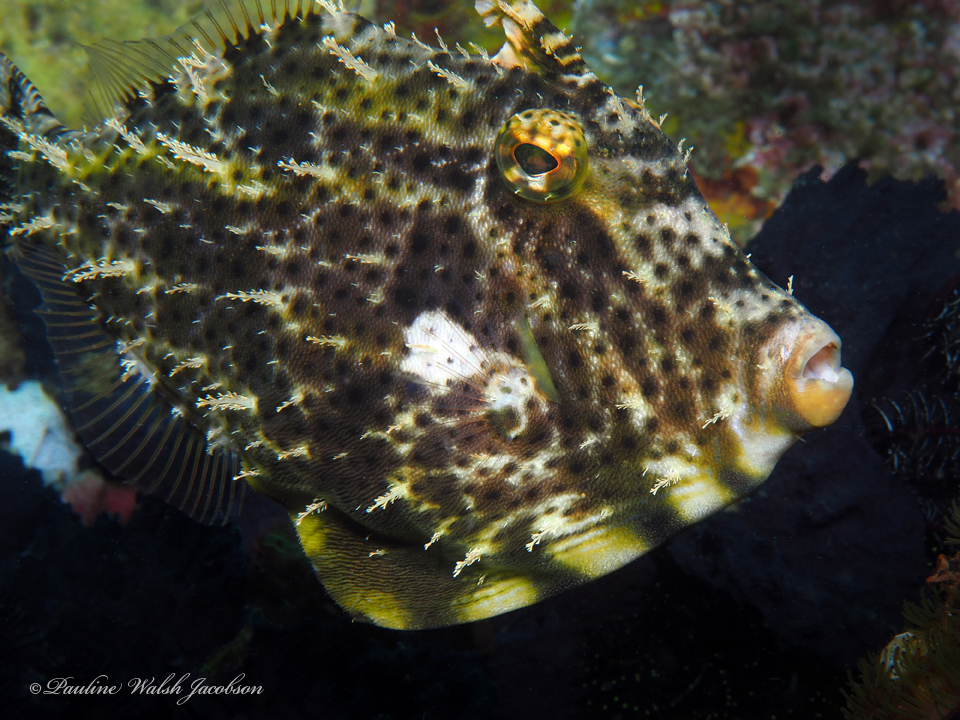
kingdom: Animalia
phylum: Chordata
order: Tetraodontiformes
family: Monacanthidae
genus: Pseudomonacanthus
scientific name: Pseudomonacanthus macrurus
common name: Blotchy filefish
